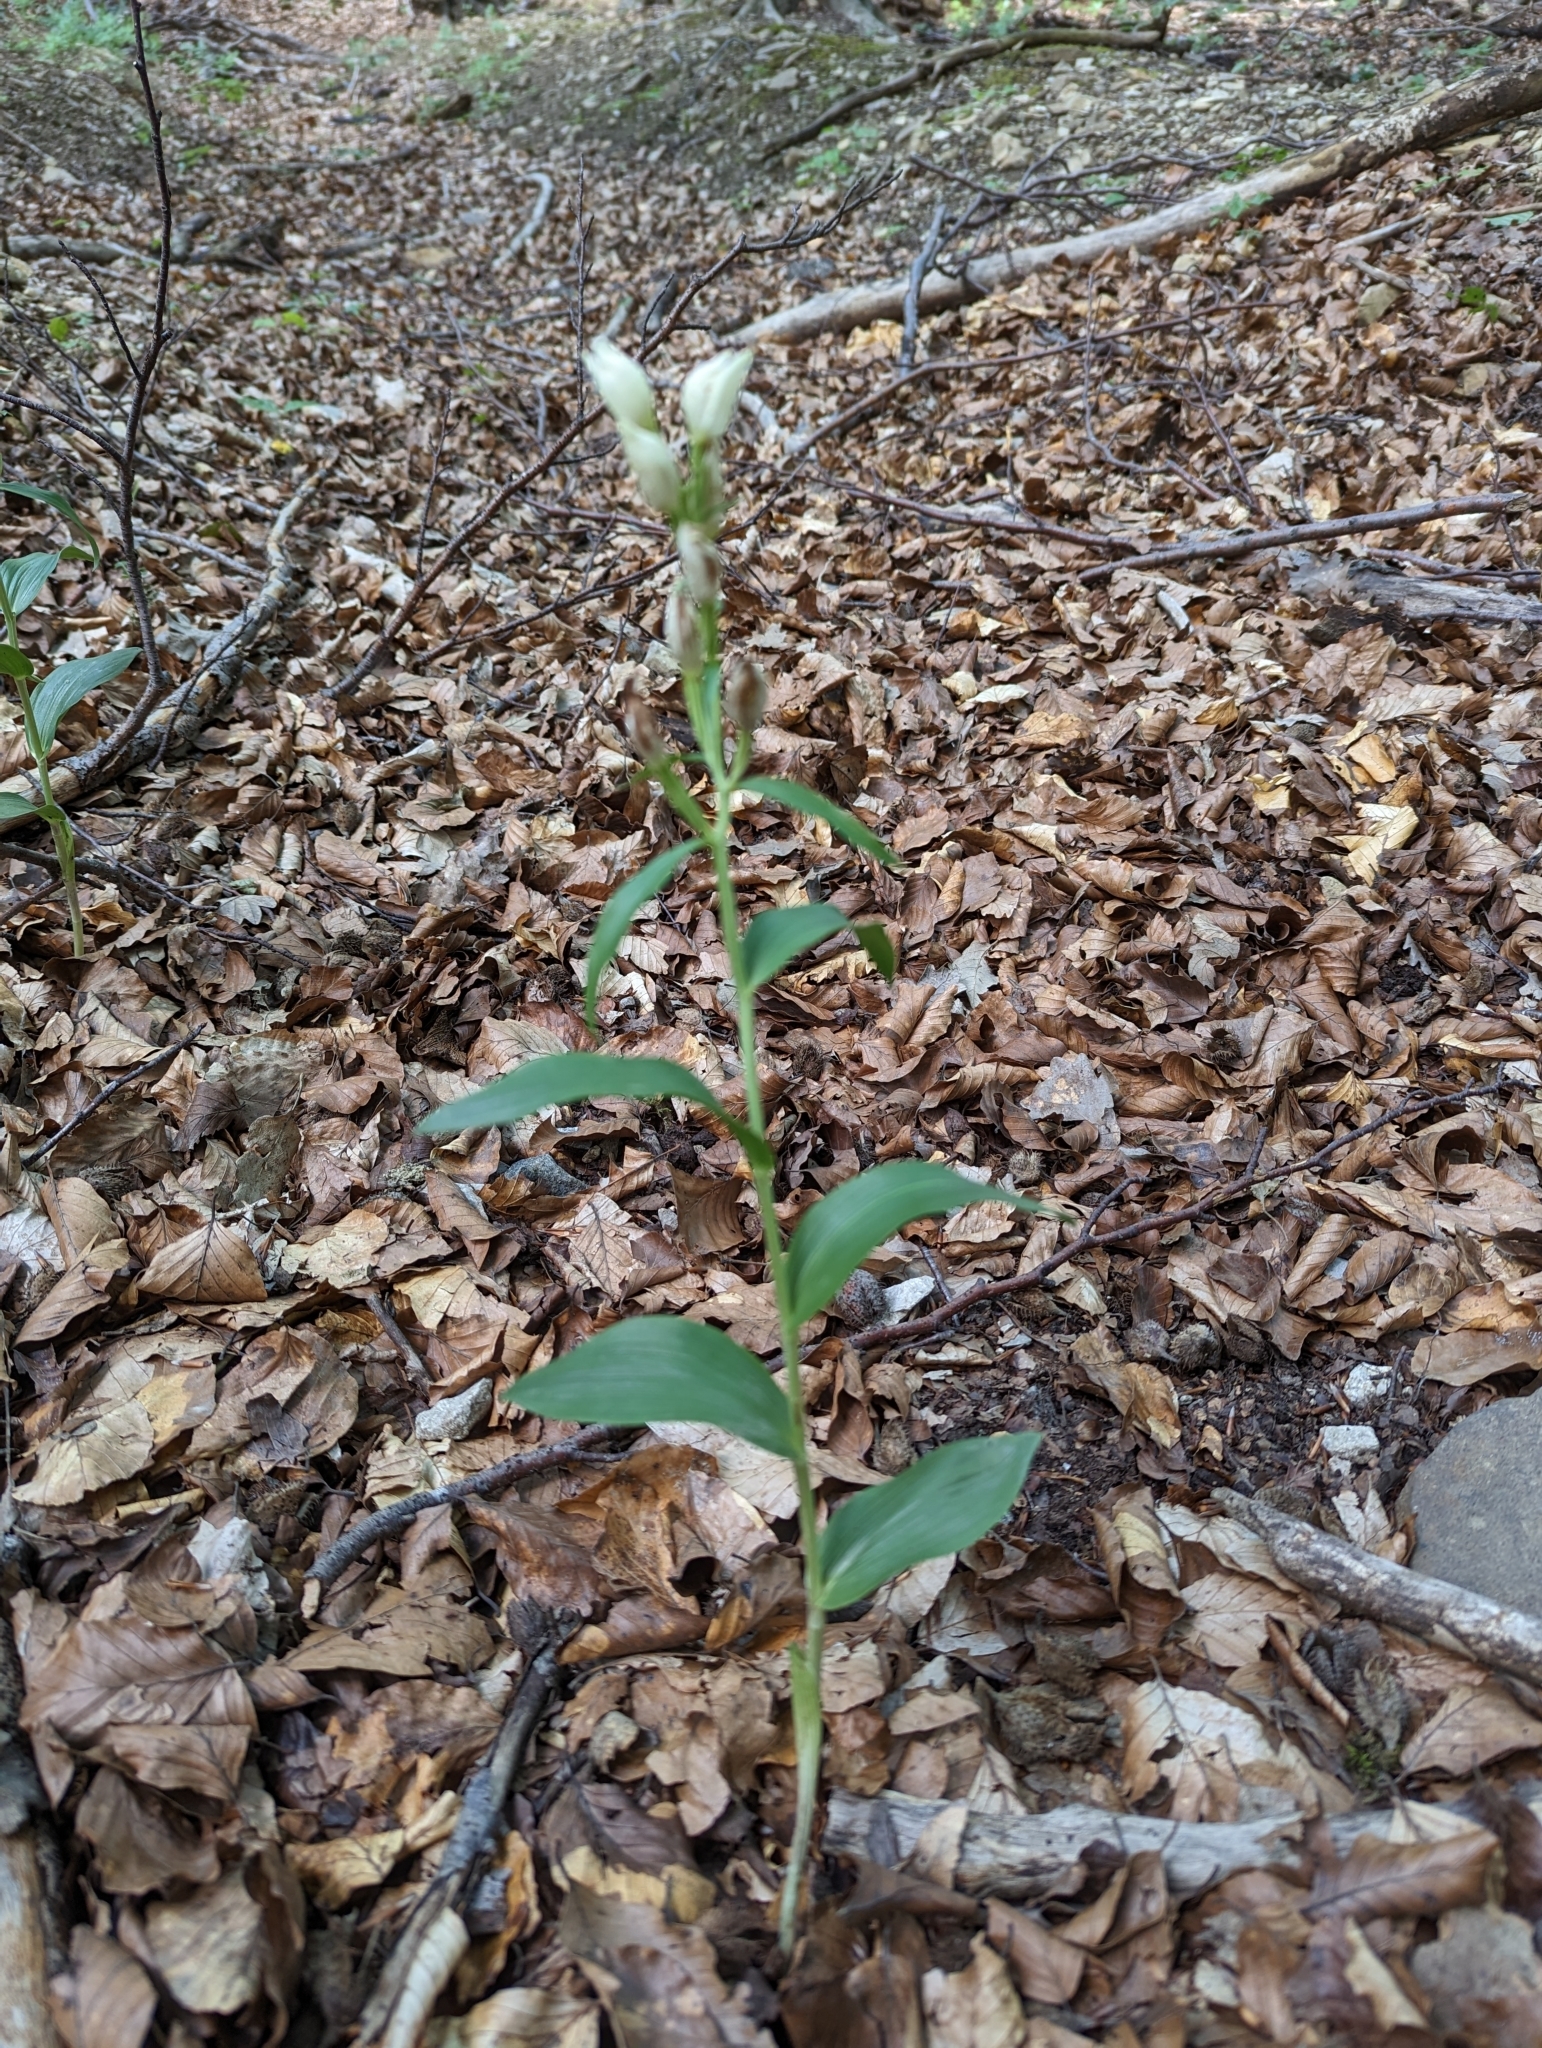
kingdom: Plantae
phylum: Tracheophyta
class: Liliopsida
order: Asparagales
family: Orchidaceae
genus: Cephalanthera
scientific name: Cephalanthera damasonium
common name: White helleborine
